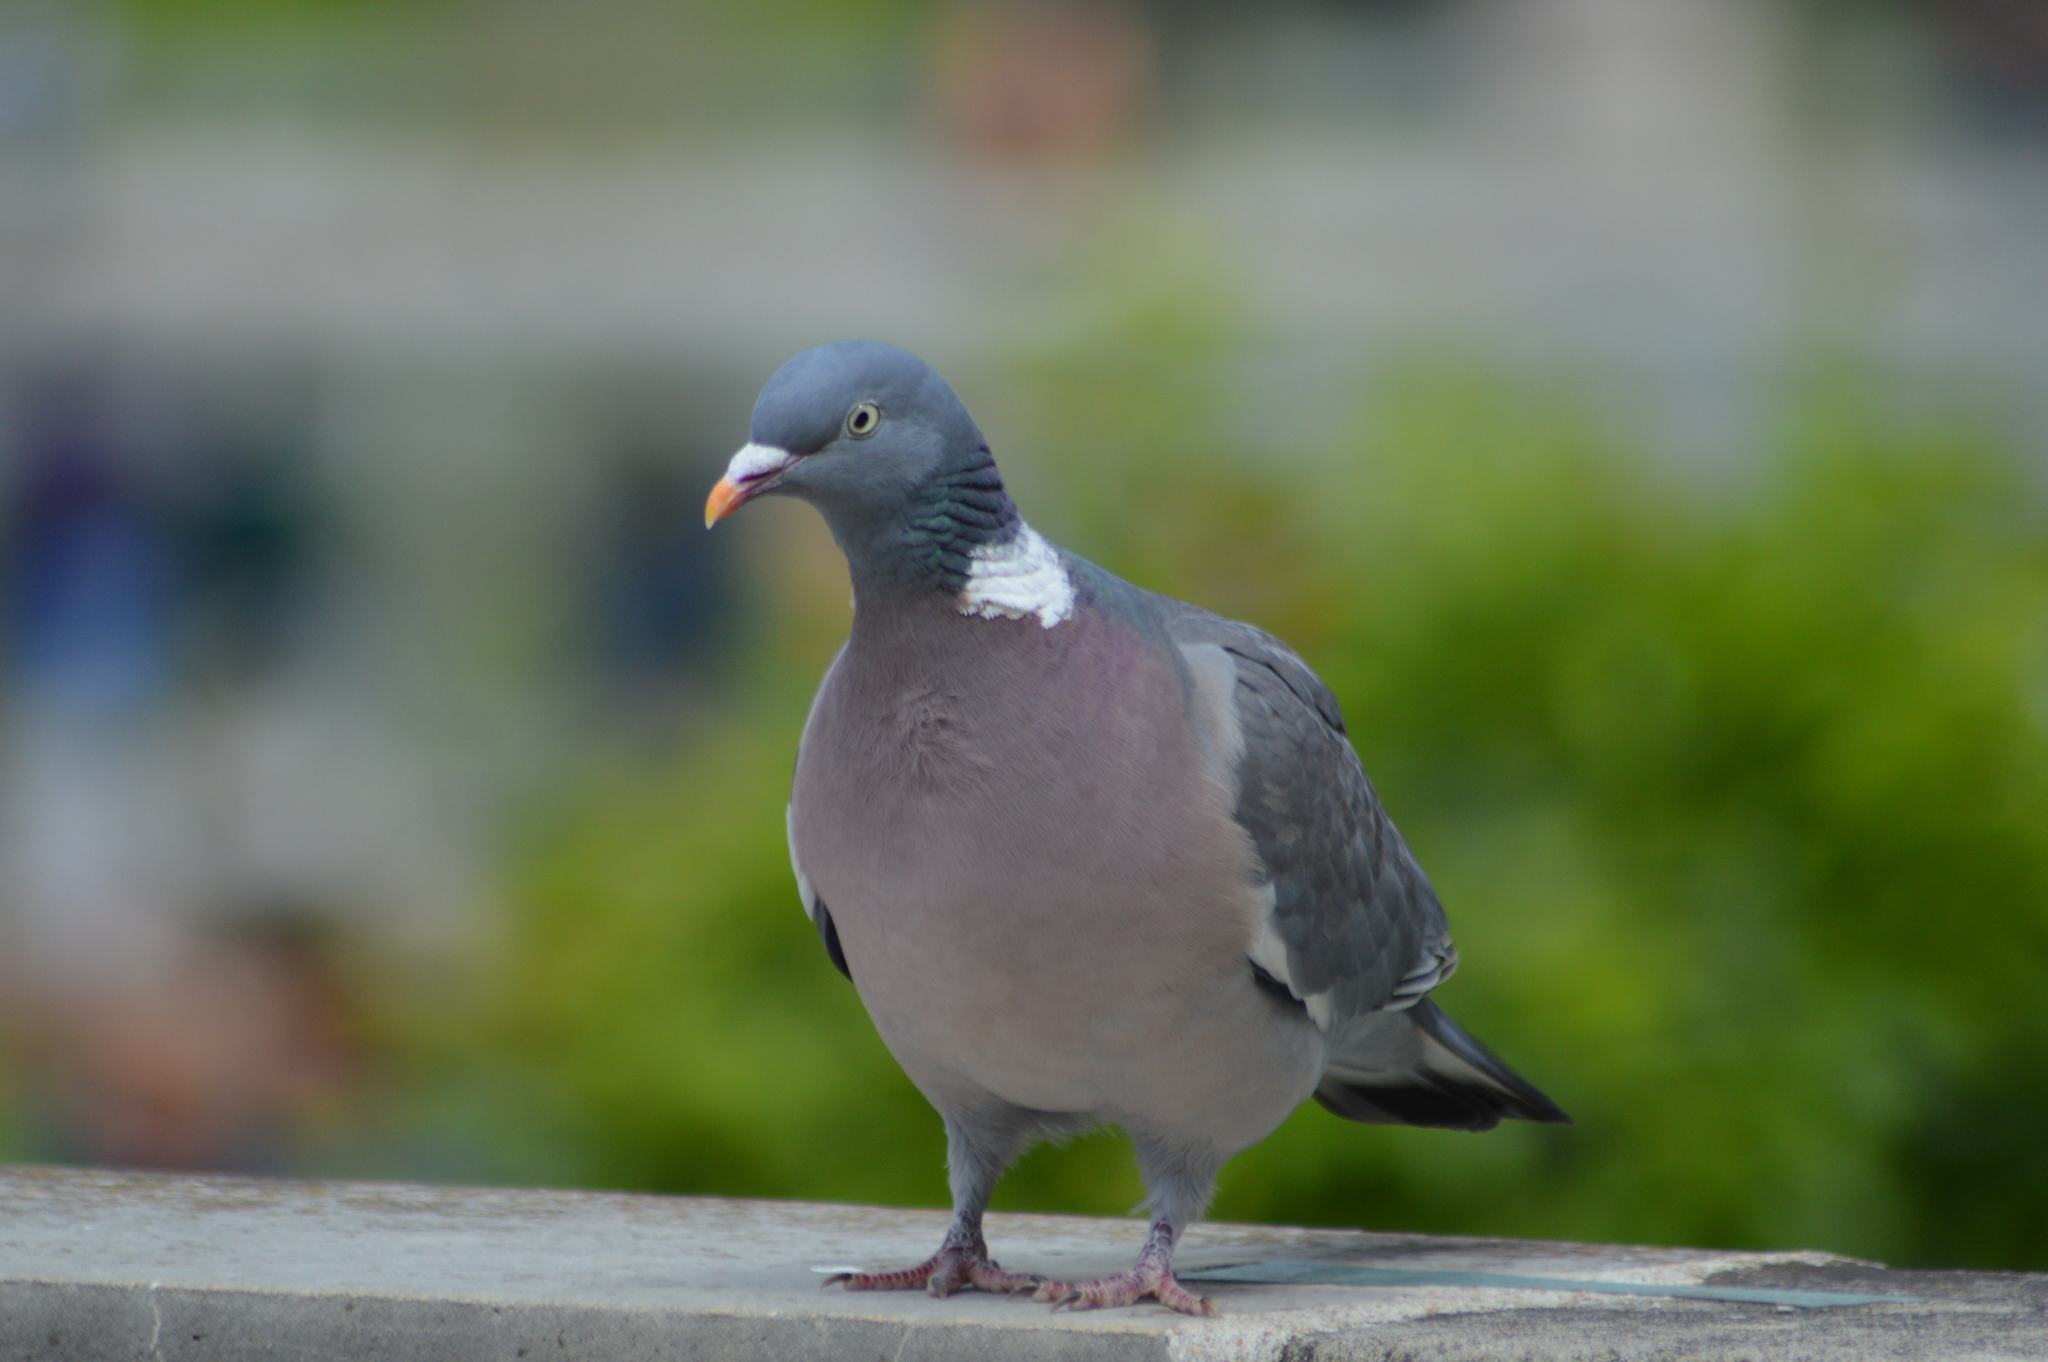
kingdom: Animalia
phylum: Chordata
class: Aves
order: Columbiformes
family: Columbidae
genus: Columba
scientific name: Columba palumbus
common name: Common wood pigeon
